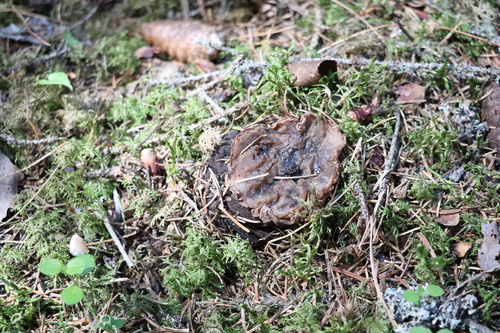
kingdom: Fungi
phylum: Ascomycota
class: Pezizomycetes
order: Pezizales
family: Sarcosomataceae
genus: Sarcosoma
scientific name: Sarcosoma globosum
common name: Charred-pancake cup
